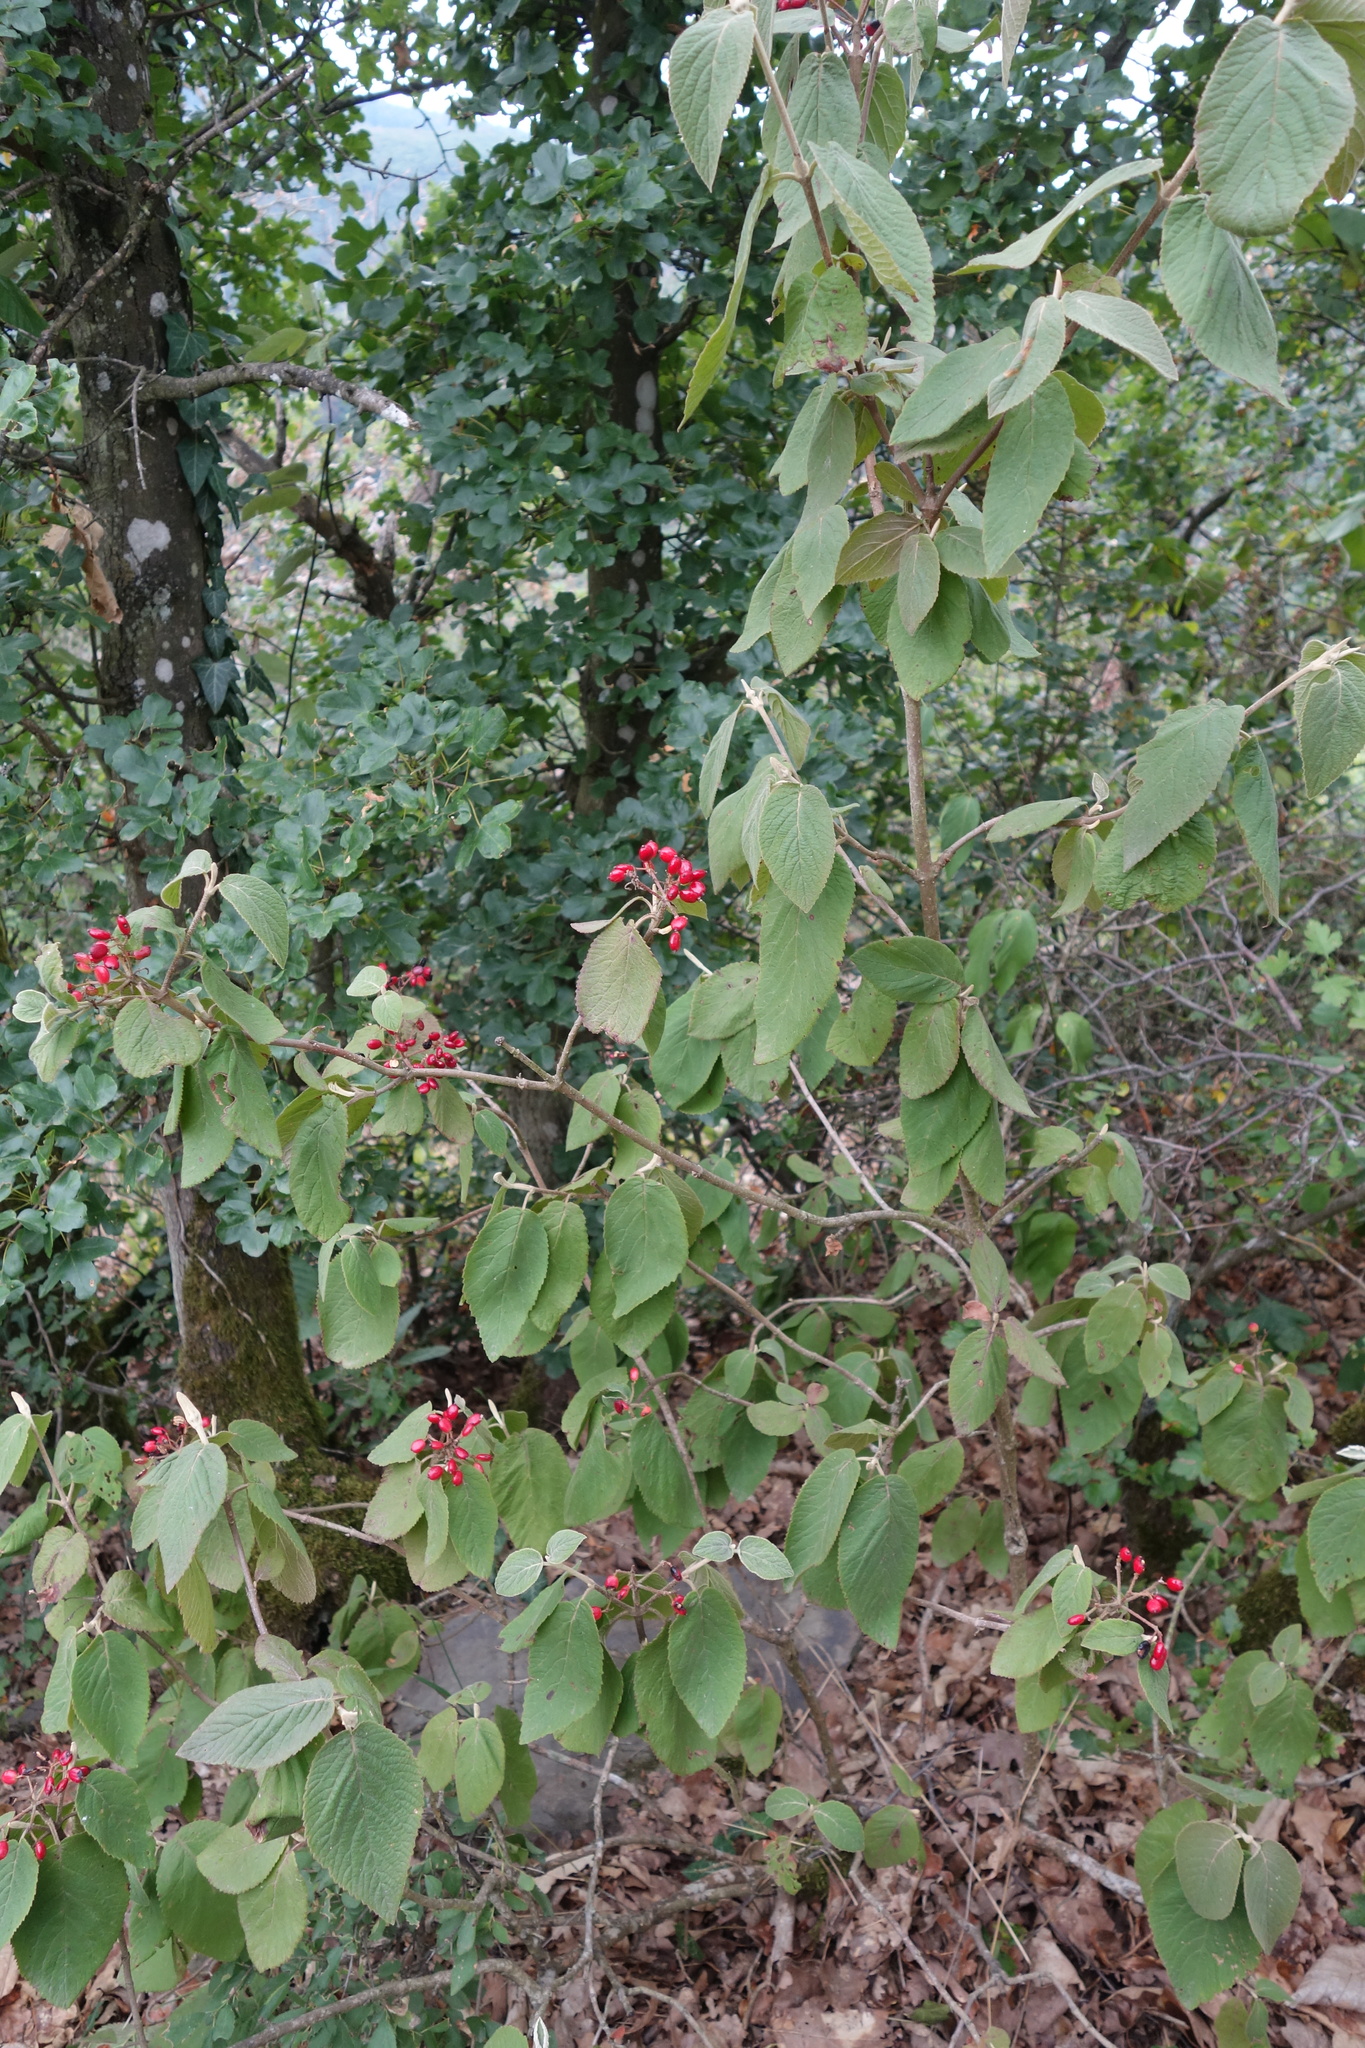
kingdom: Plantae
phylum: Tracheophyta
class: Magnoliopsida
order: Dipsacales
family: Viburnaceae
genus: Viburnum
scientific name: Viburnum lantana
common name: Wayfaring tree
